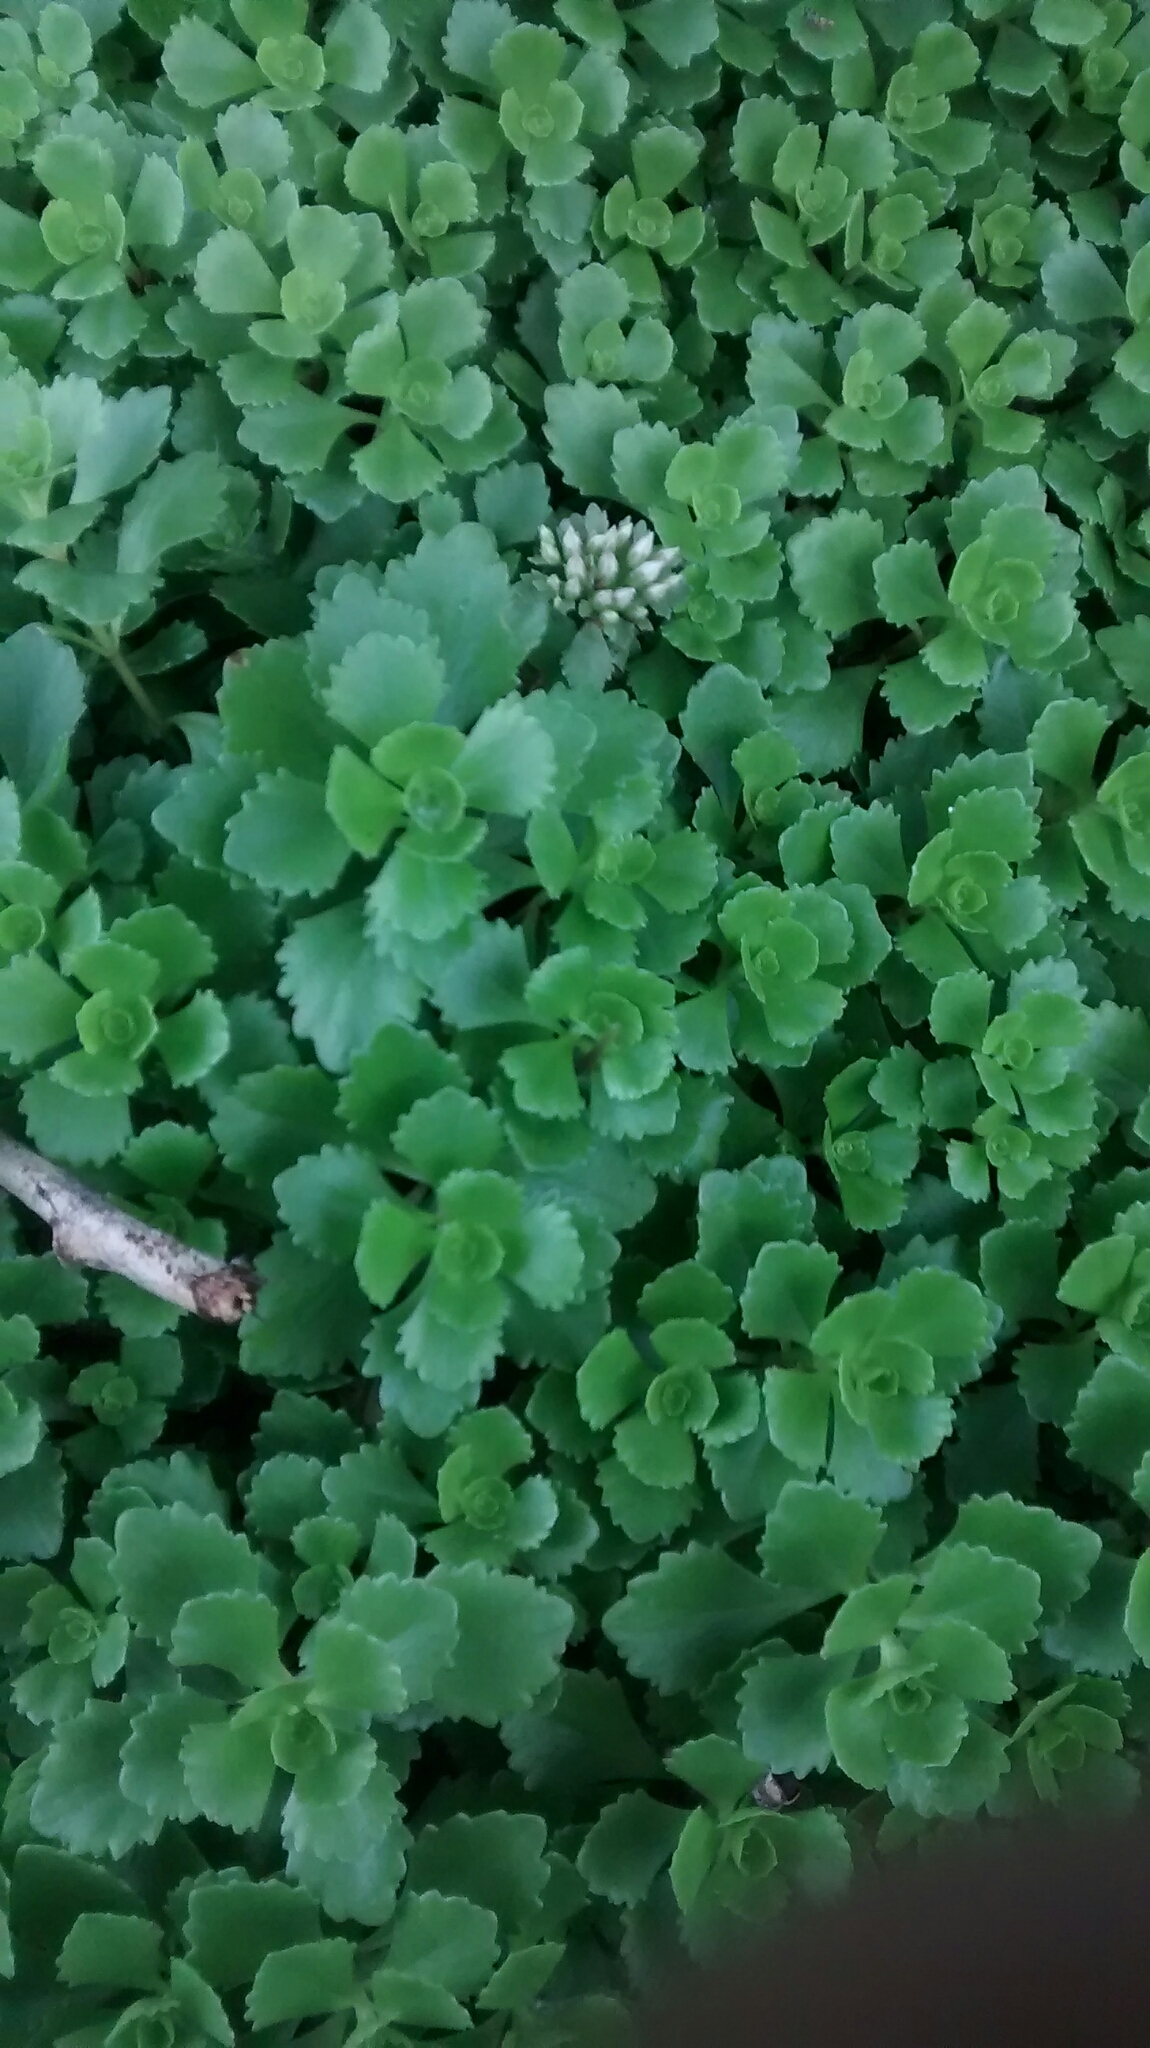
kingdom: Plantae
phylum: Tracheophyta
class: Magnoliopsida
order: Saxifragales
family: Crassulaceae
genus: Phedimus
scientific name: Phedimus spurius
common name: Caucasian stonecrop
